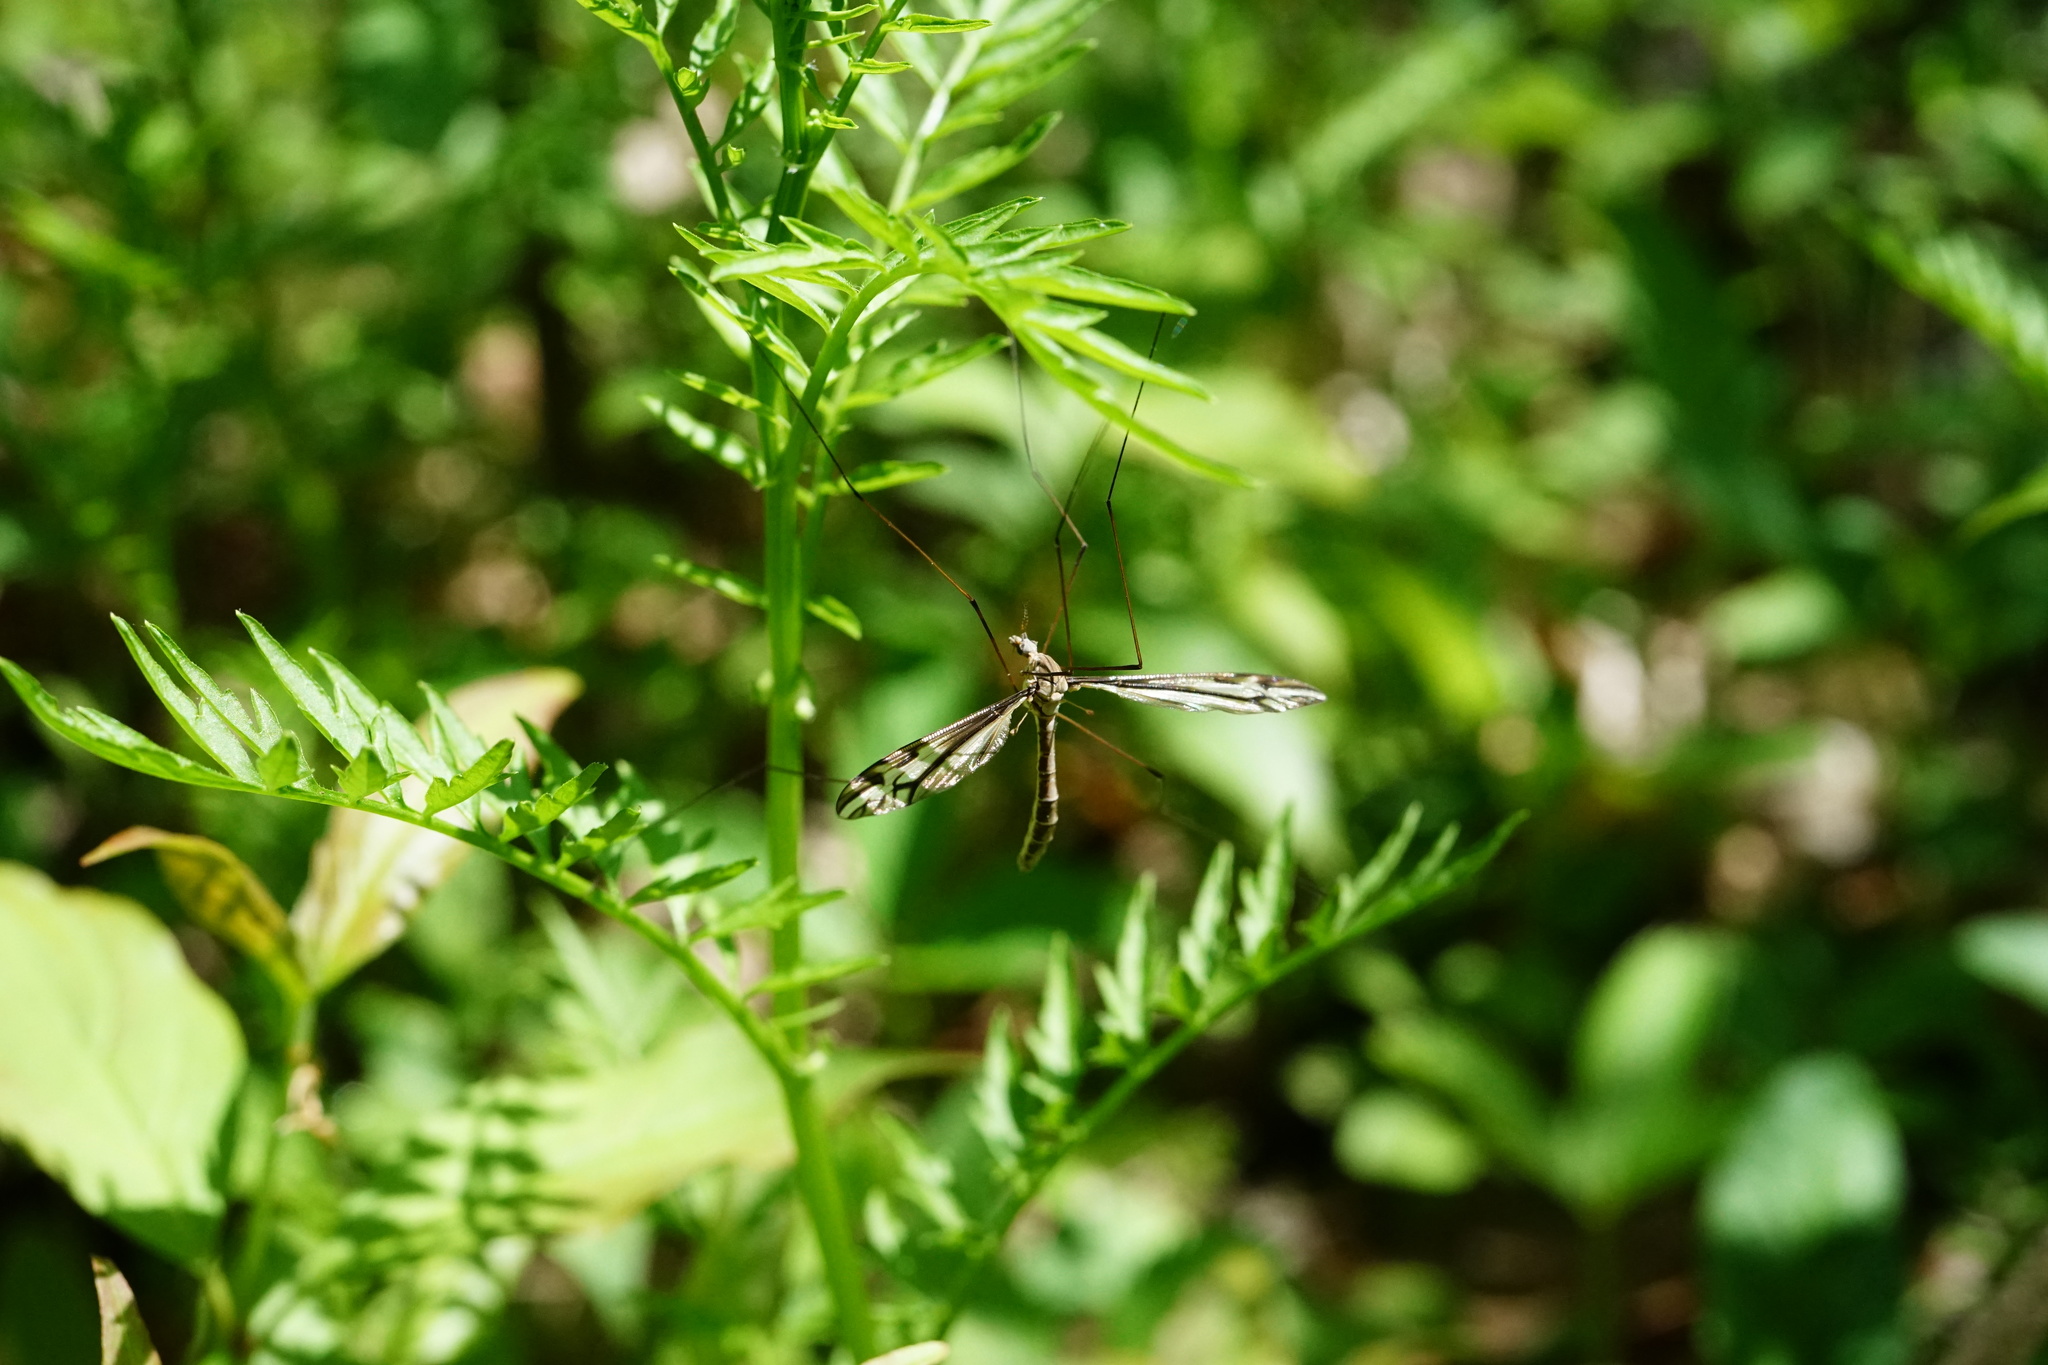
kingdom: Plantae
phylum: Tracheophyta
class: Magnoliopsida
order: Brassicales
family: Brassicaceae
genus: Cardamine
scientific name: Cardamine impatiens
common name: Narrow-leaved bitter-cress
